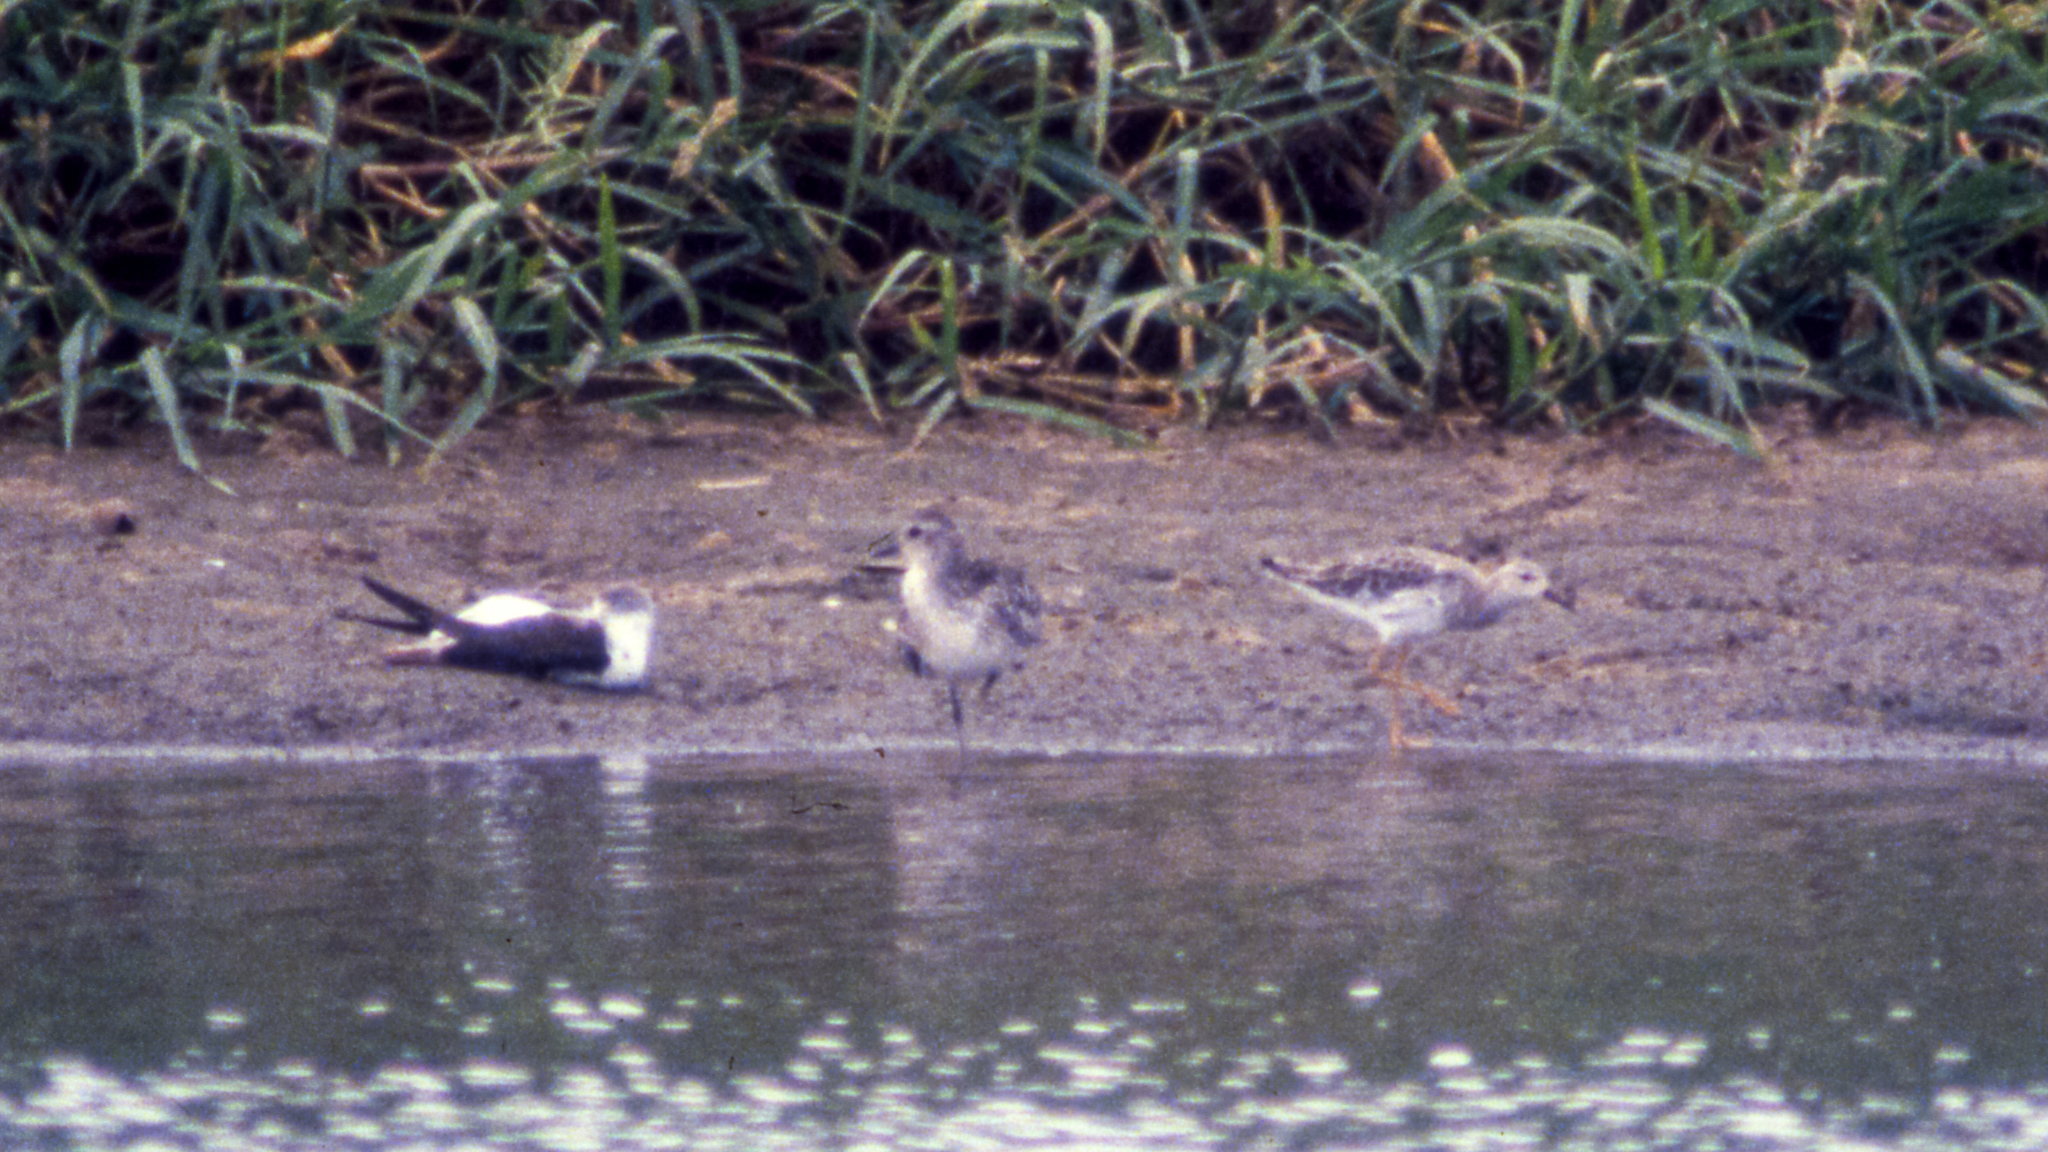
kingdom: Animalia
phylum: Chordata
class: Aves
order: Charadriiformes
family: Scolopacidae
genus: Calidris
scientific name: Calidris pugnax
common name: Ruff
